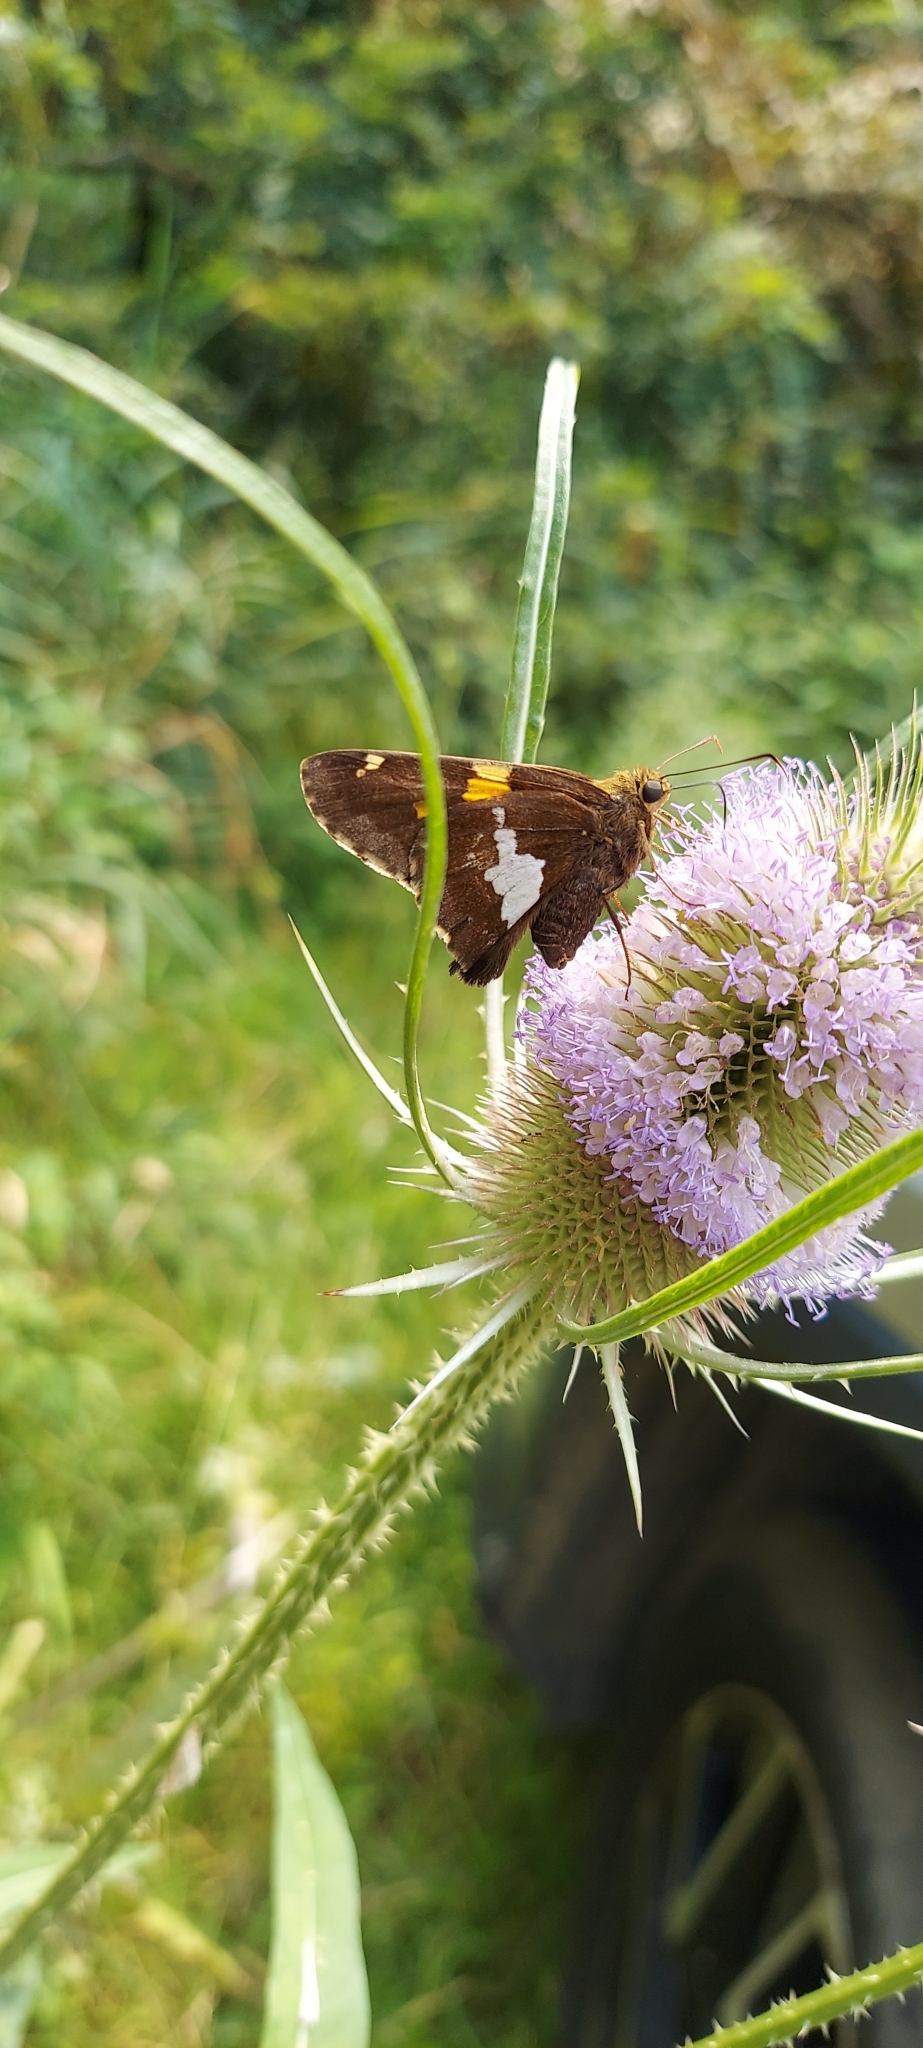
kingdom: Animalia
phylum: Arthropoda
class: Insecta
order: Lepidoptera
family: Hesperiidae
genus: Epargyreus
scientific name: Epargyreus clarus
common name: Silver-spotted skipper
